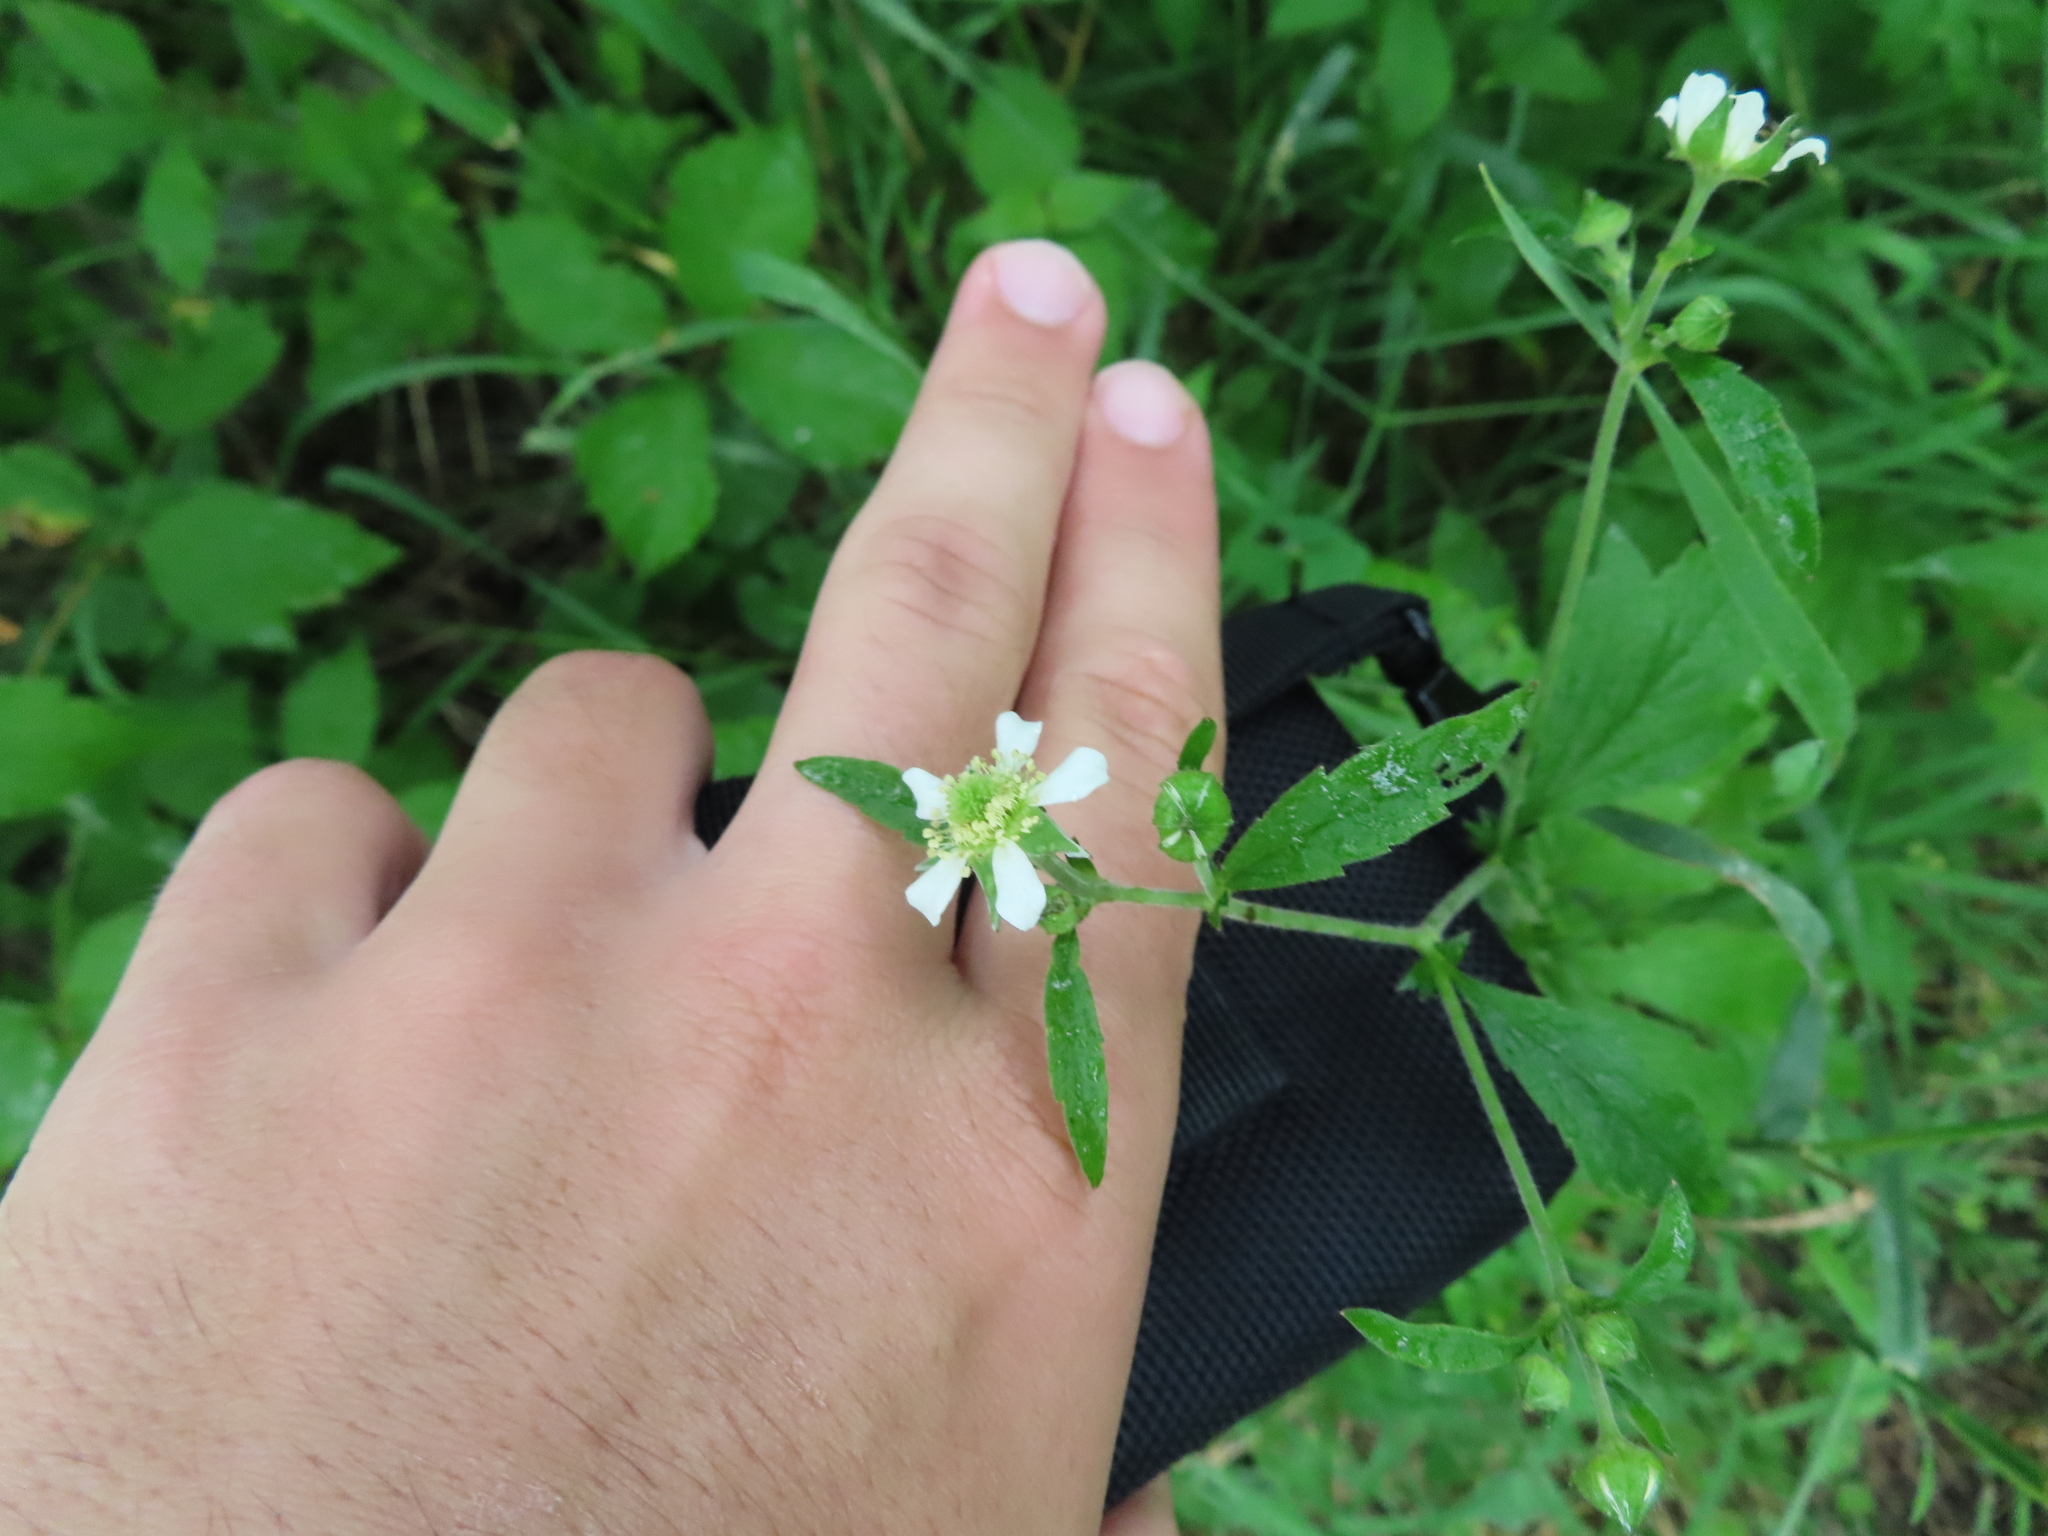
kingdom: Plantae
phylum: Tracheophyta
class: Magnoliopsida
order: Rosales
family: Rosaceae
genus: Geum
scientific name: Geum canadense
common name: White avens
